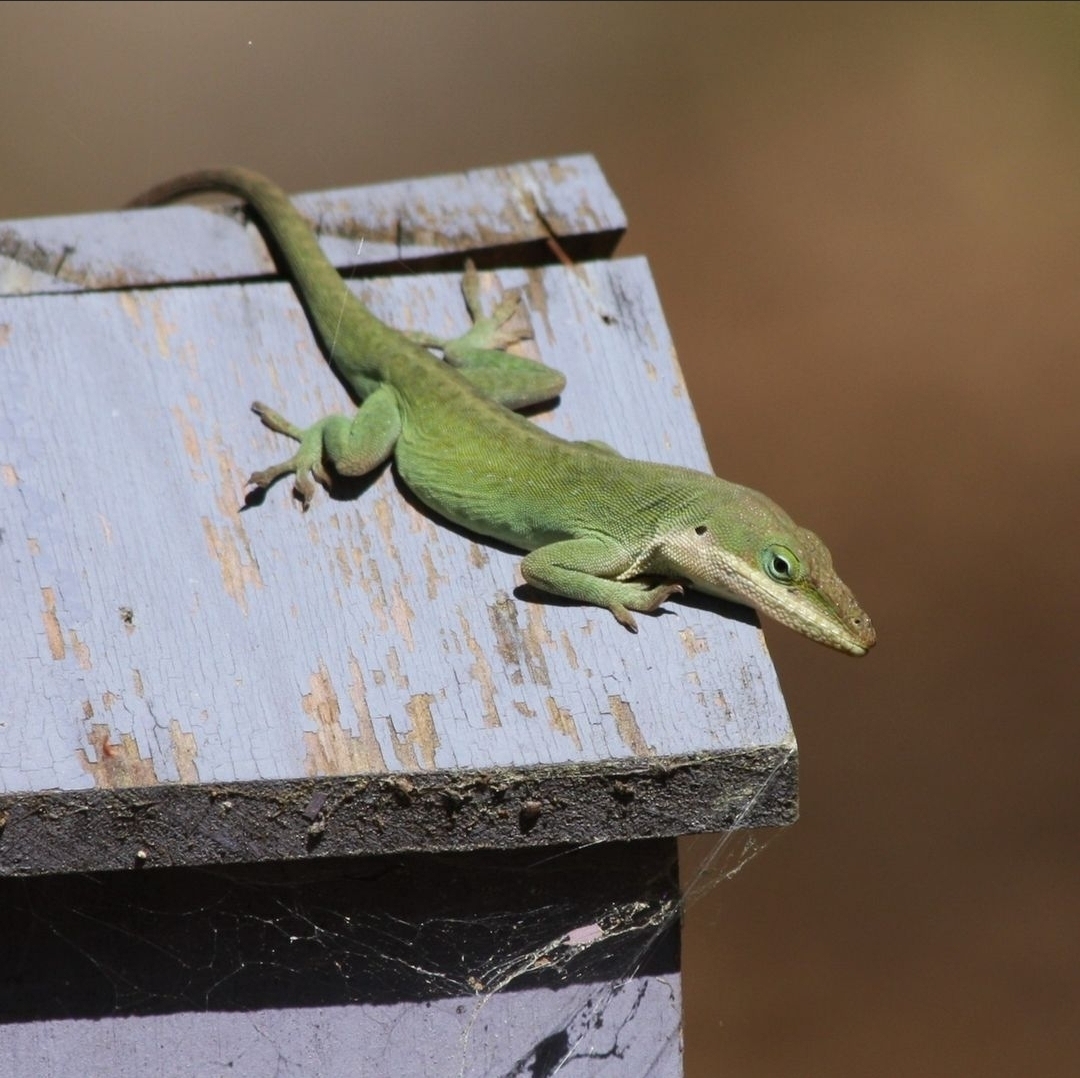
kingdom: Animalia
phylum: Chordata
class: Squamata
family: Dactyloidae
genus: Anolis
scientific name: Anolis carolinensis
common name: Green anole
